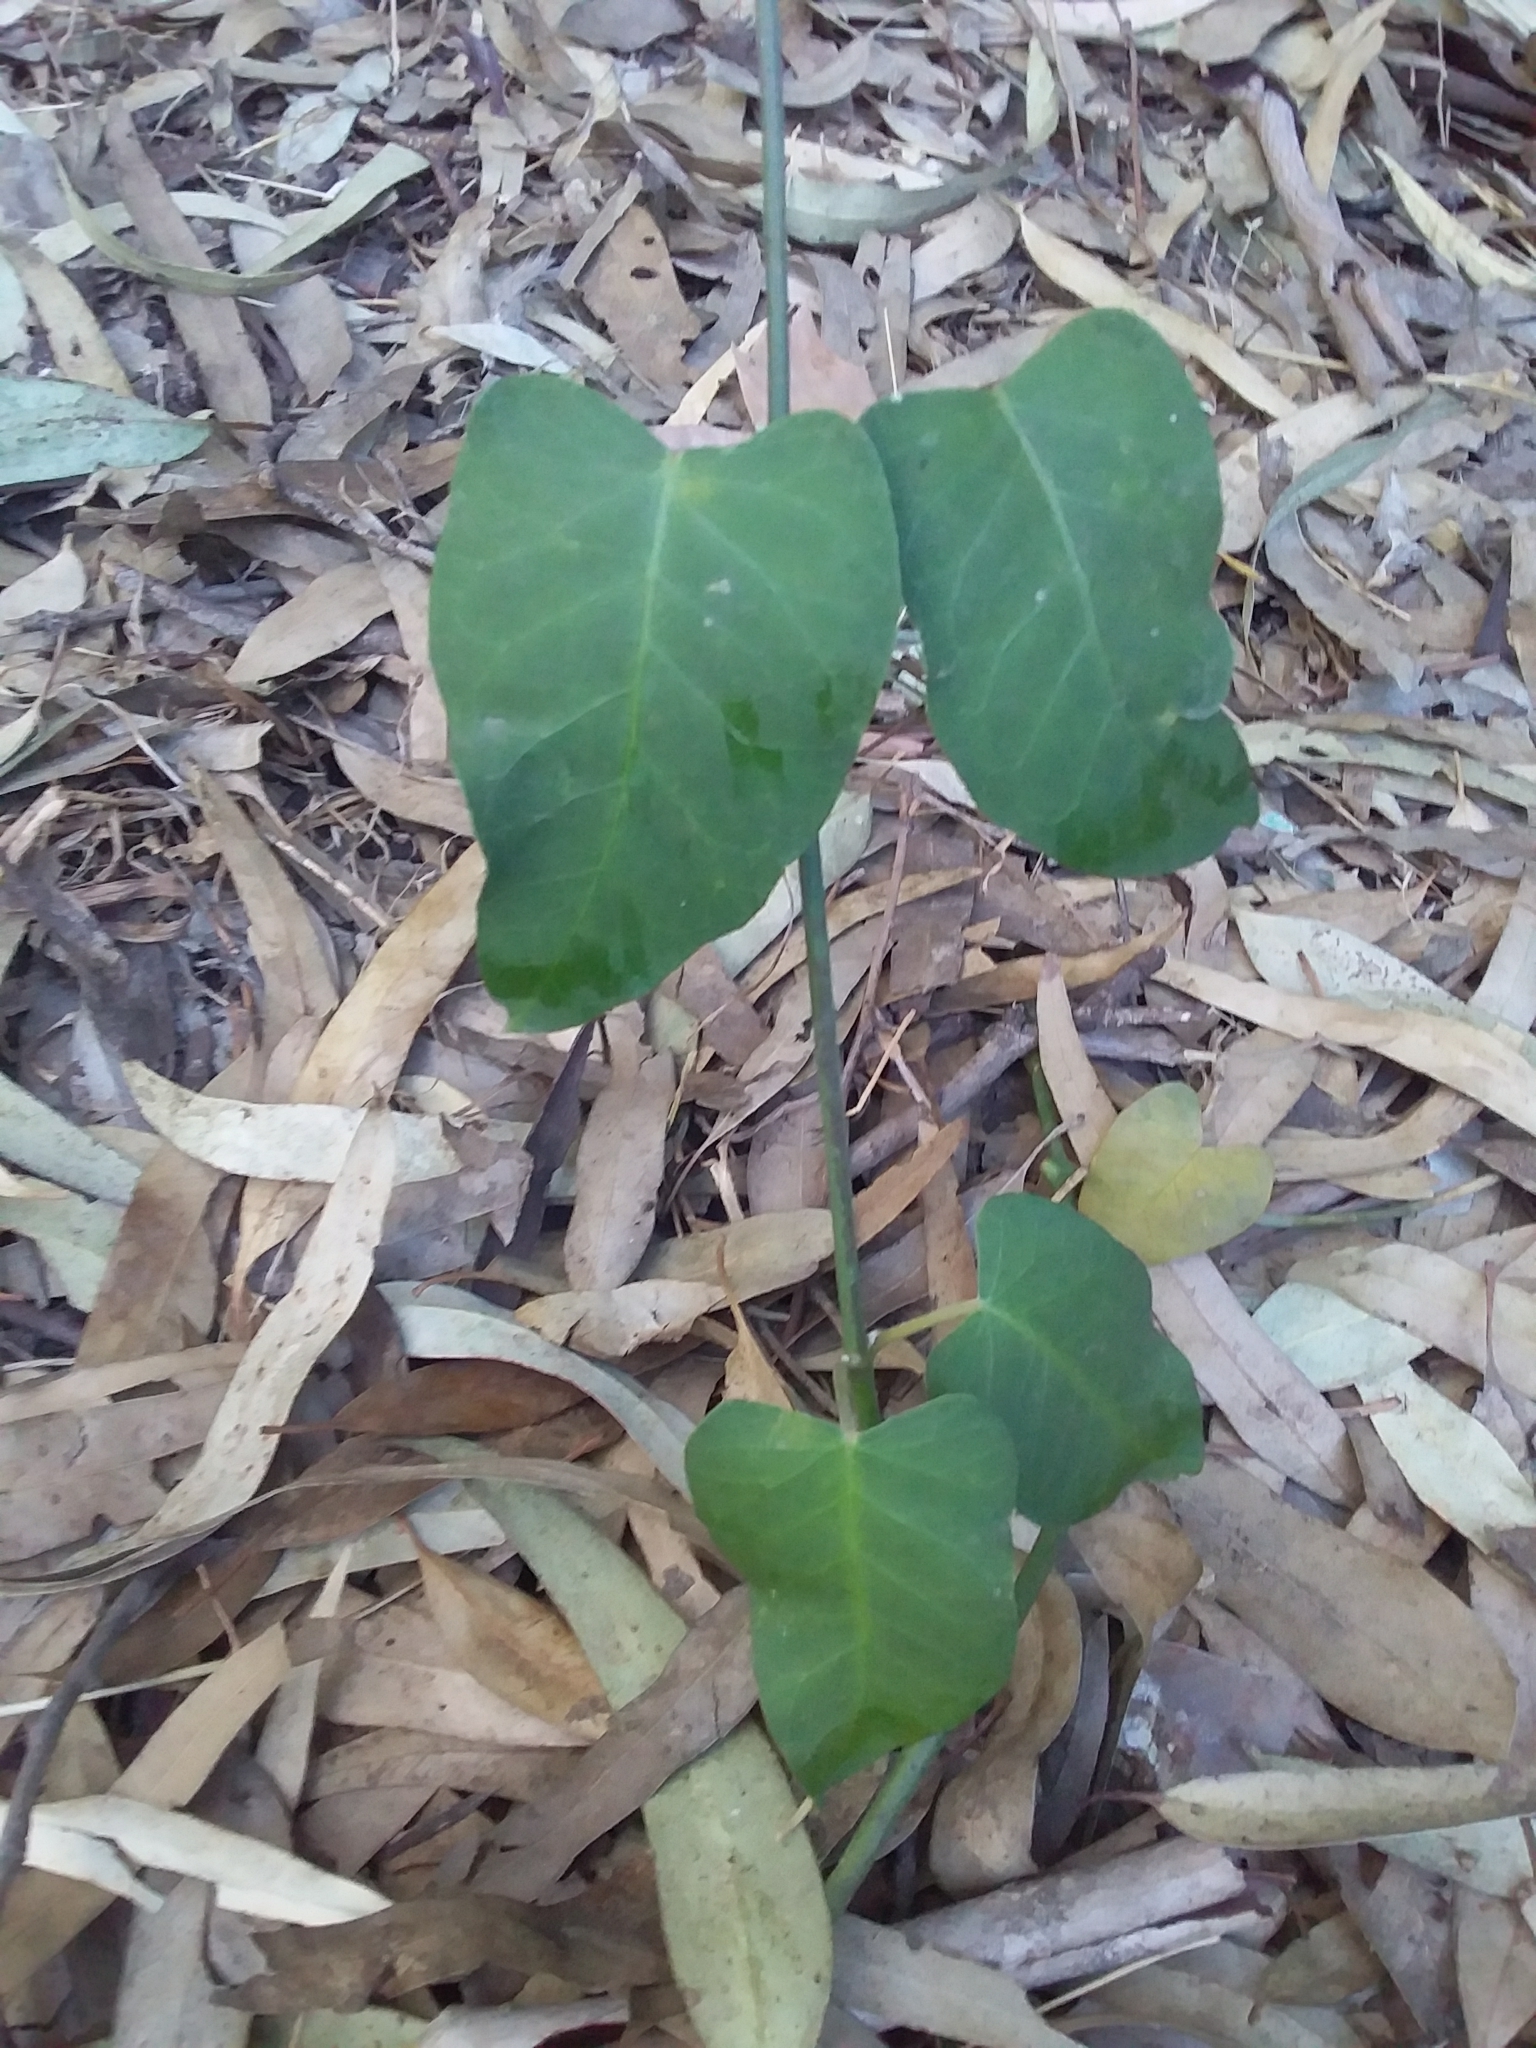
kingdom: Plantae
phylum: Tracheophyta
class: Magnoliopsida
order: Gentianales
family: Apocynaceae
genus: Araujia
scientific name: Araujia sericifera
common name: White bladderflower
